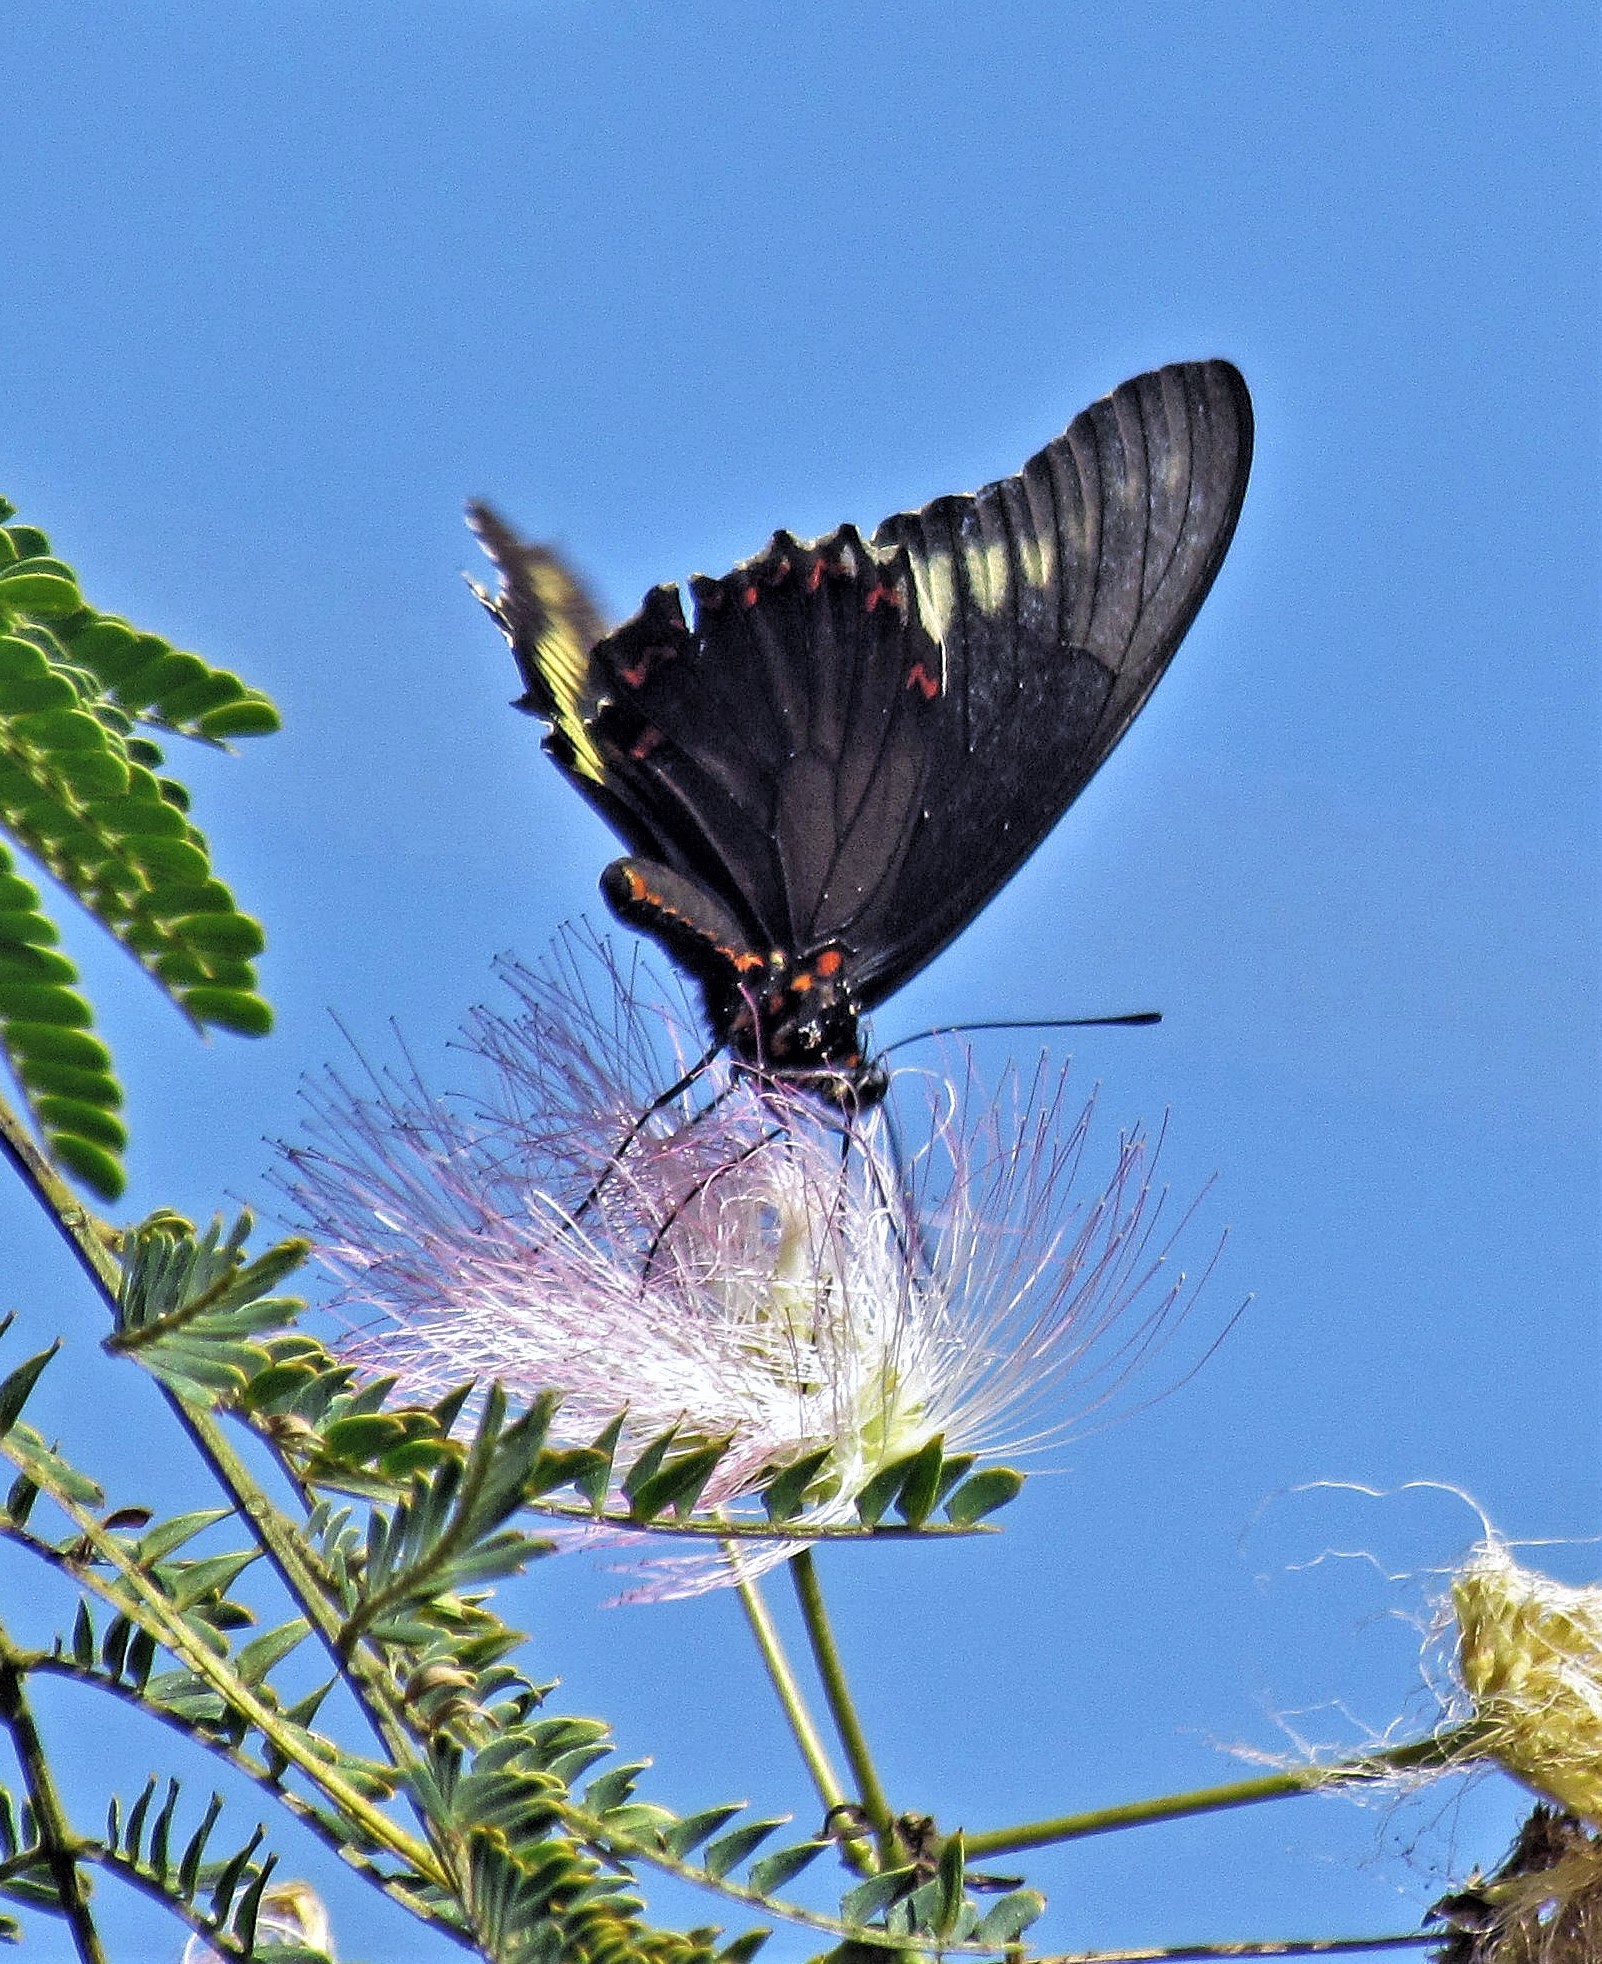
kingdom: Animalia
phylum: Arthropoda
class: Insecta
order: Lepidoptera
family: Papilionidae
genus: Battus
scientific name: Battus polydamas
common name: Polydamas swallowtail
